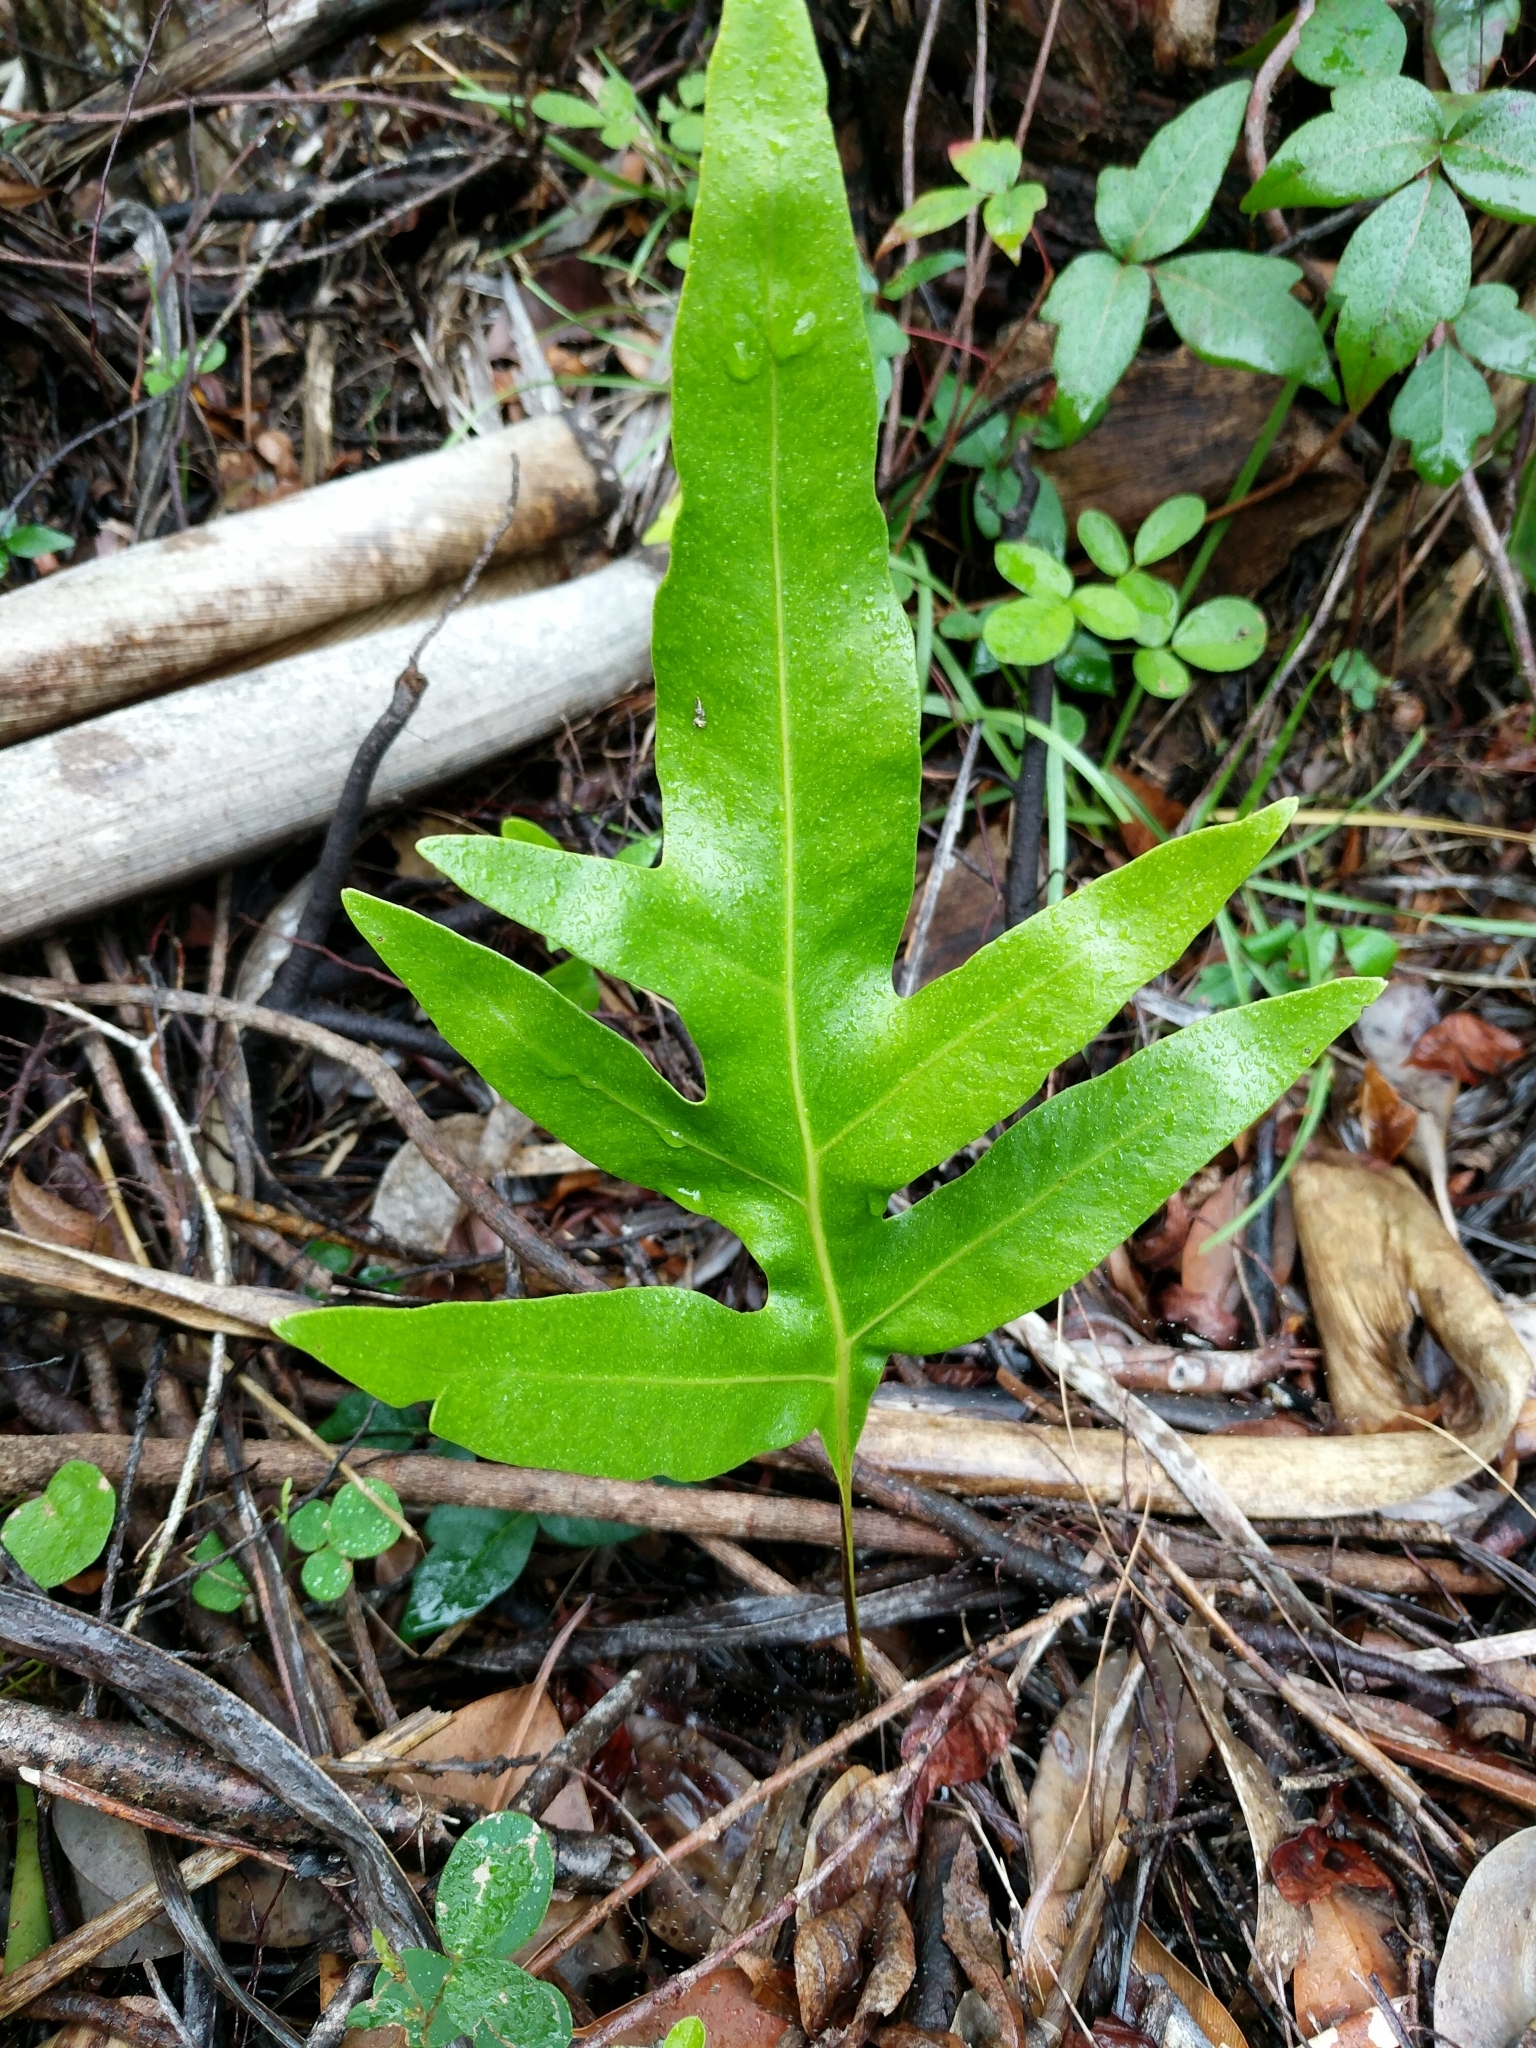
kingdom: Plantae
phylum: Tracheophyta
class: Polypodiopsida
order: Polypodiales
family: Polypodiaceae
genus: Microsorum
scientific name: Microsorum grossum
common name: Musk fern
